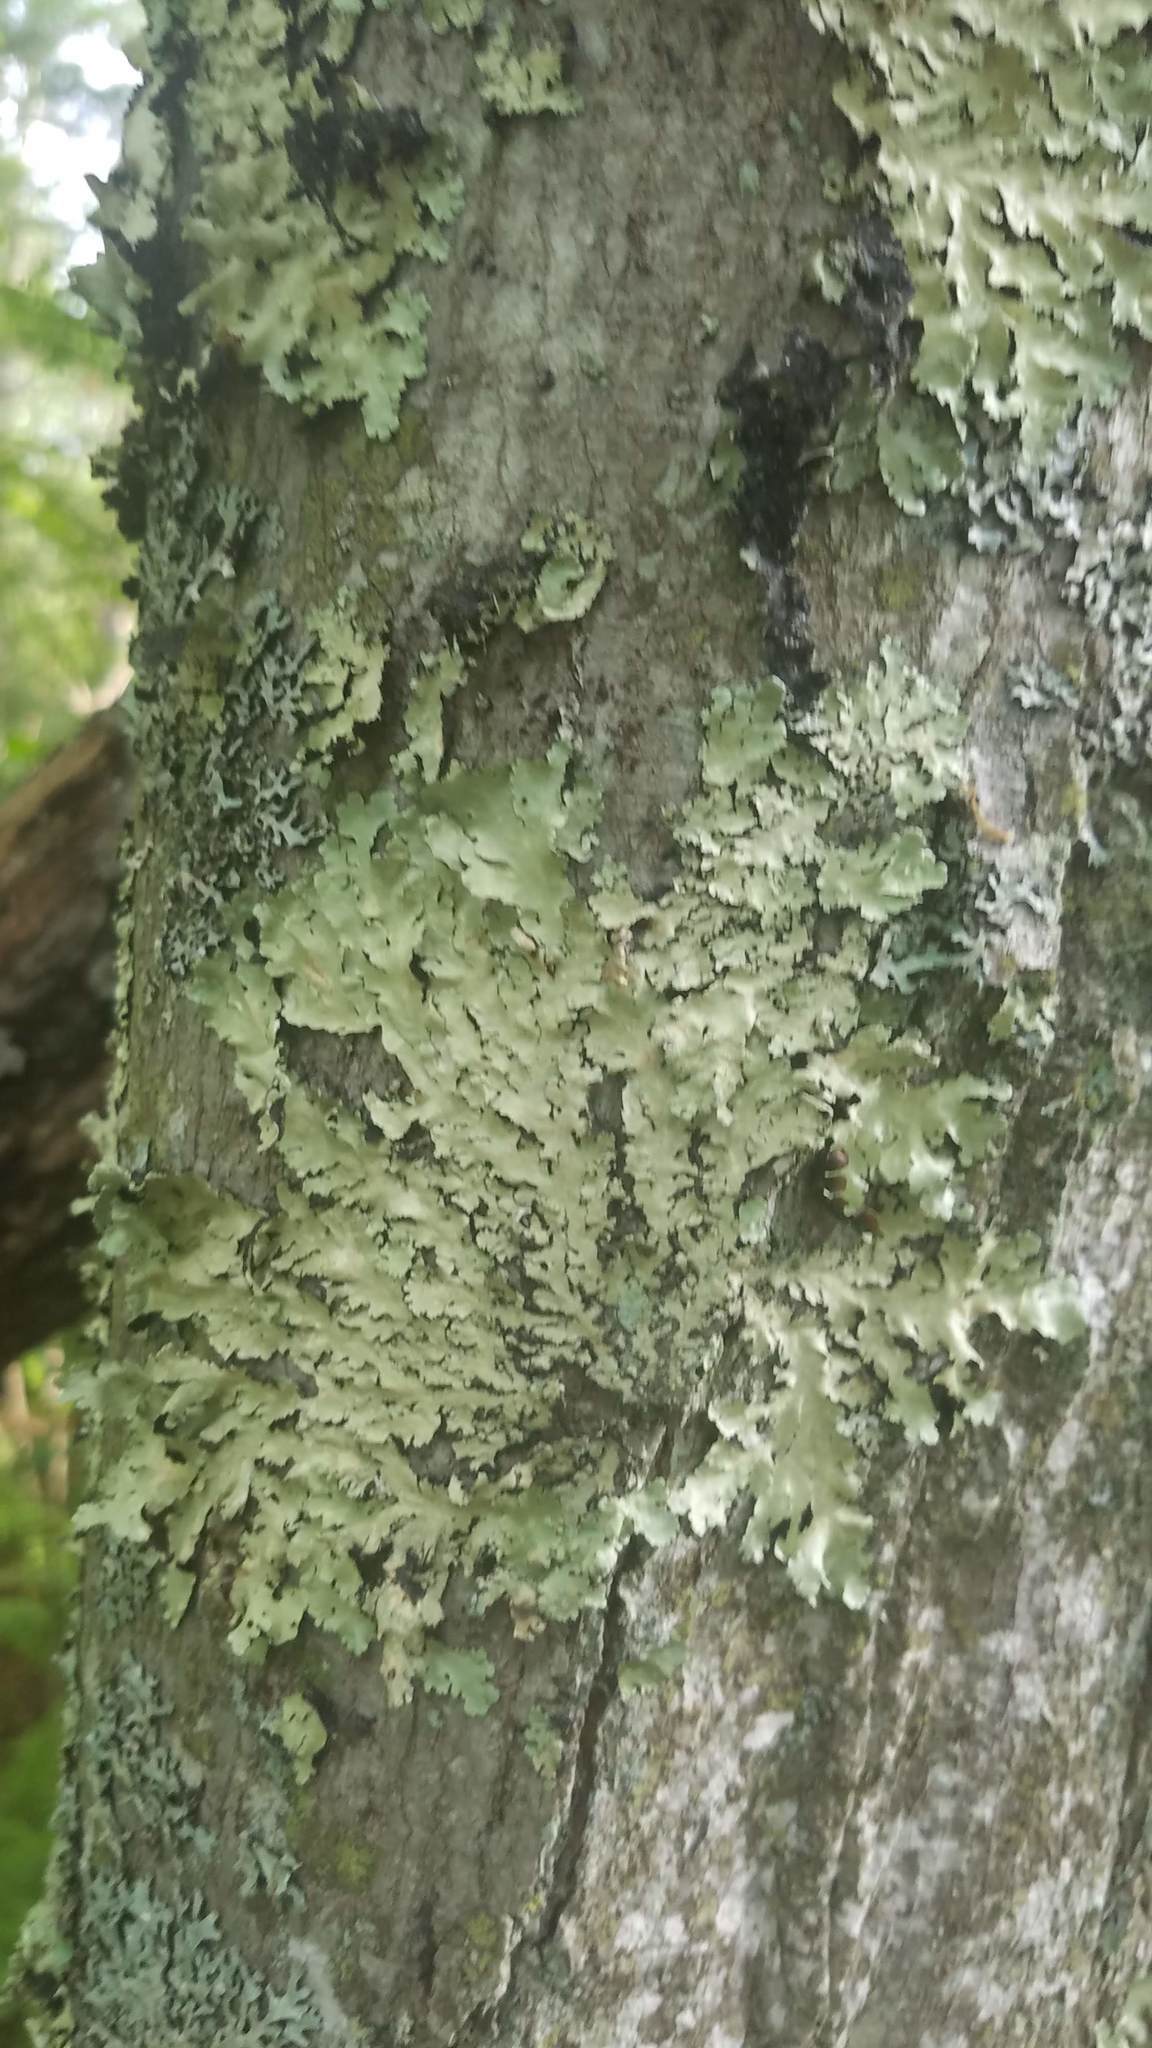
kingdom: Fungi
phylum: Ascomycota
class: Lecanoromycetes
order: Lecanorales
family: Parmeliaceae
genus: Flavoparmelia
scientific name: Flavoparmelia caperata
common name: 40-mile per hour lichen
